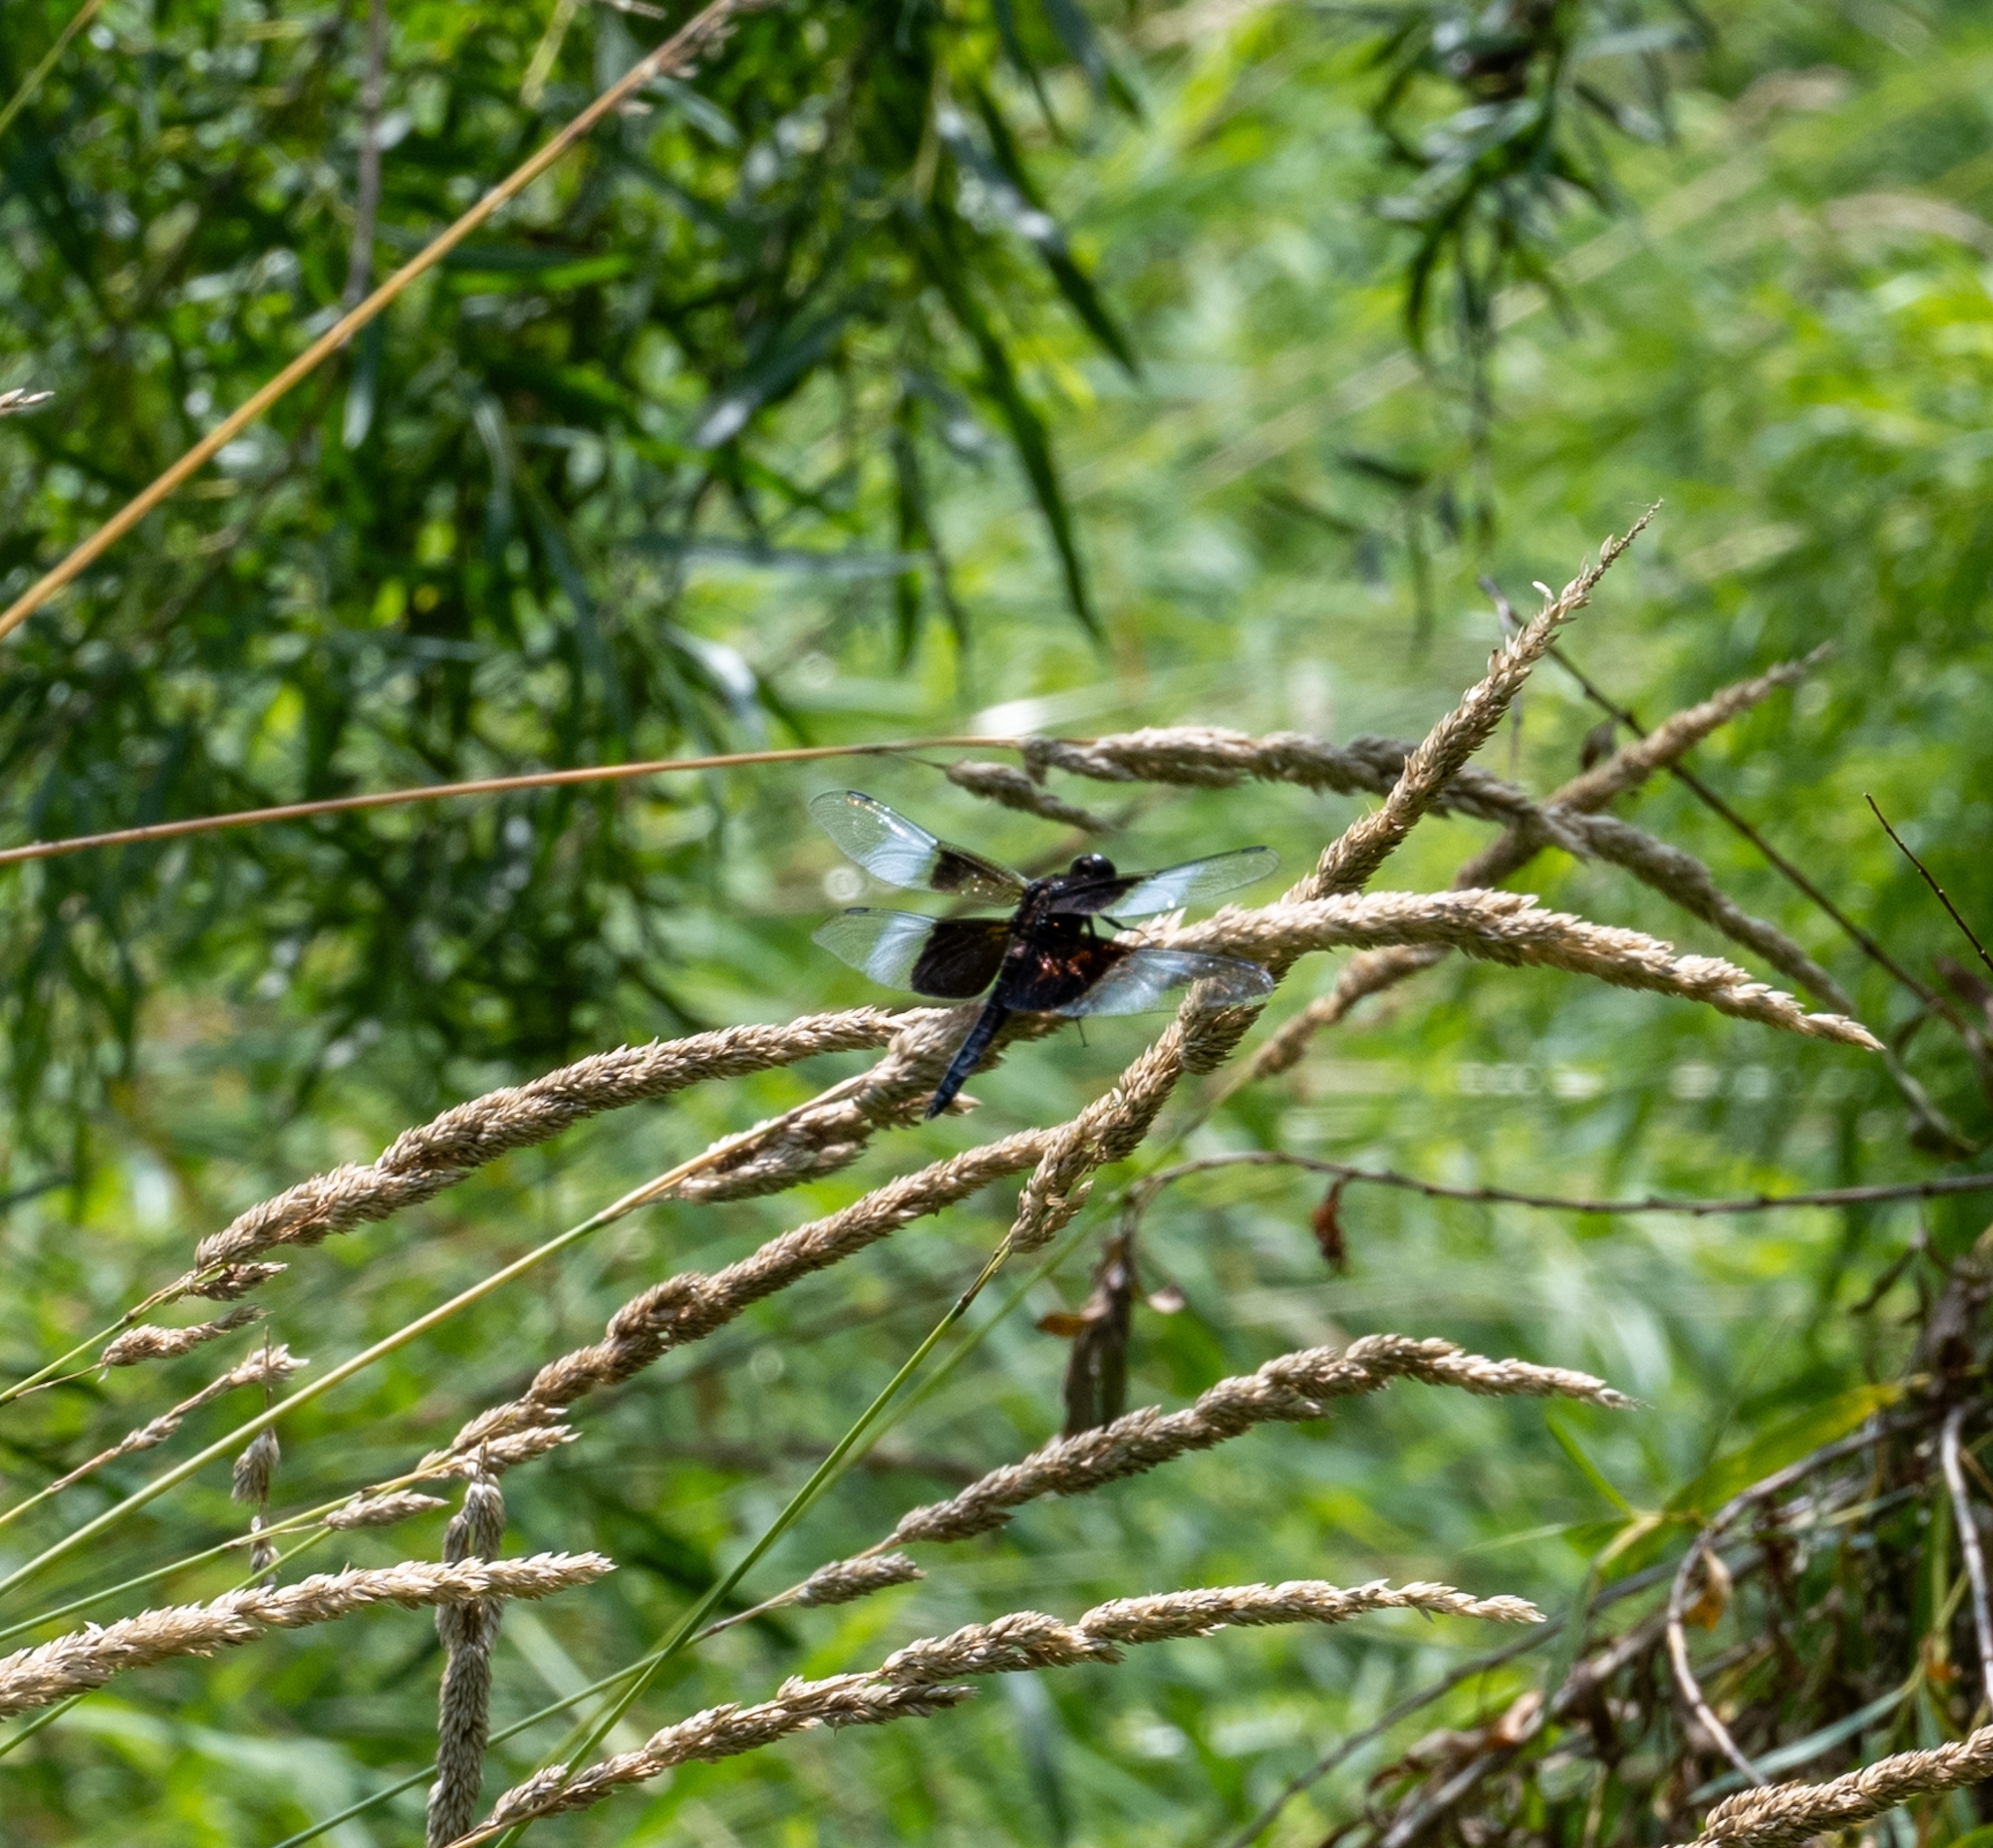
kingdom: Animalia
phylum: Arthropoda
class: Insecta
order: Odonata
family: Libellulidae
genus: Libellula
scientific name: Libellula luctuosa
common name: Widow skimmer
